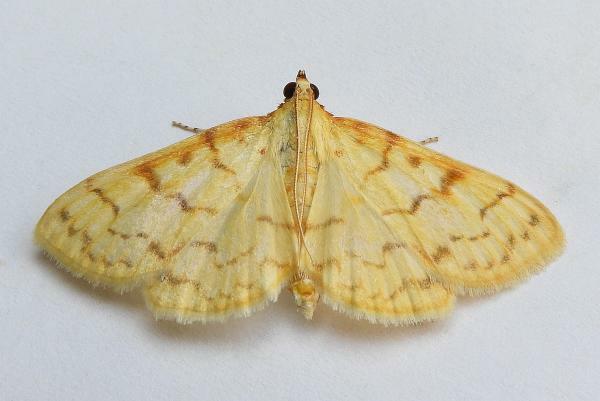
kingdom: Animalia
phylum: Arthropoda
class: Insecta
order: Lepidoptera
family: Crambidae
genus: Polygrammodes
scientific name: Polygrammodes flavidalis
